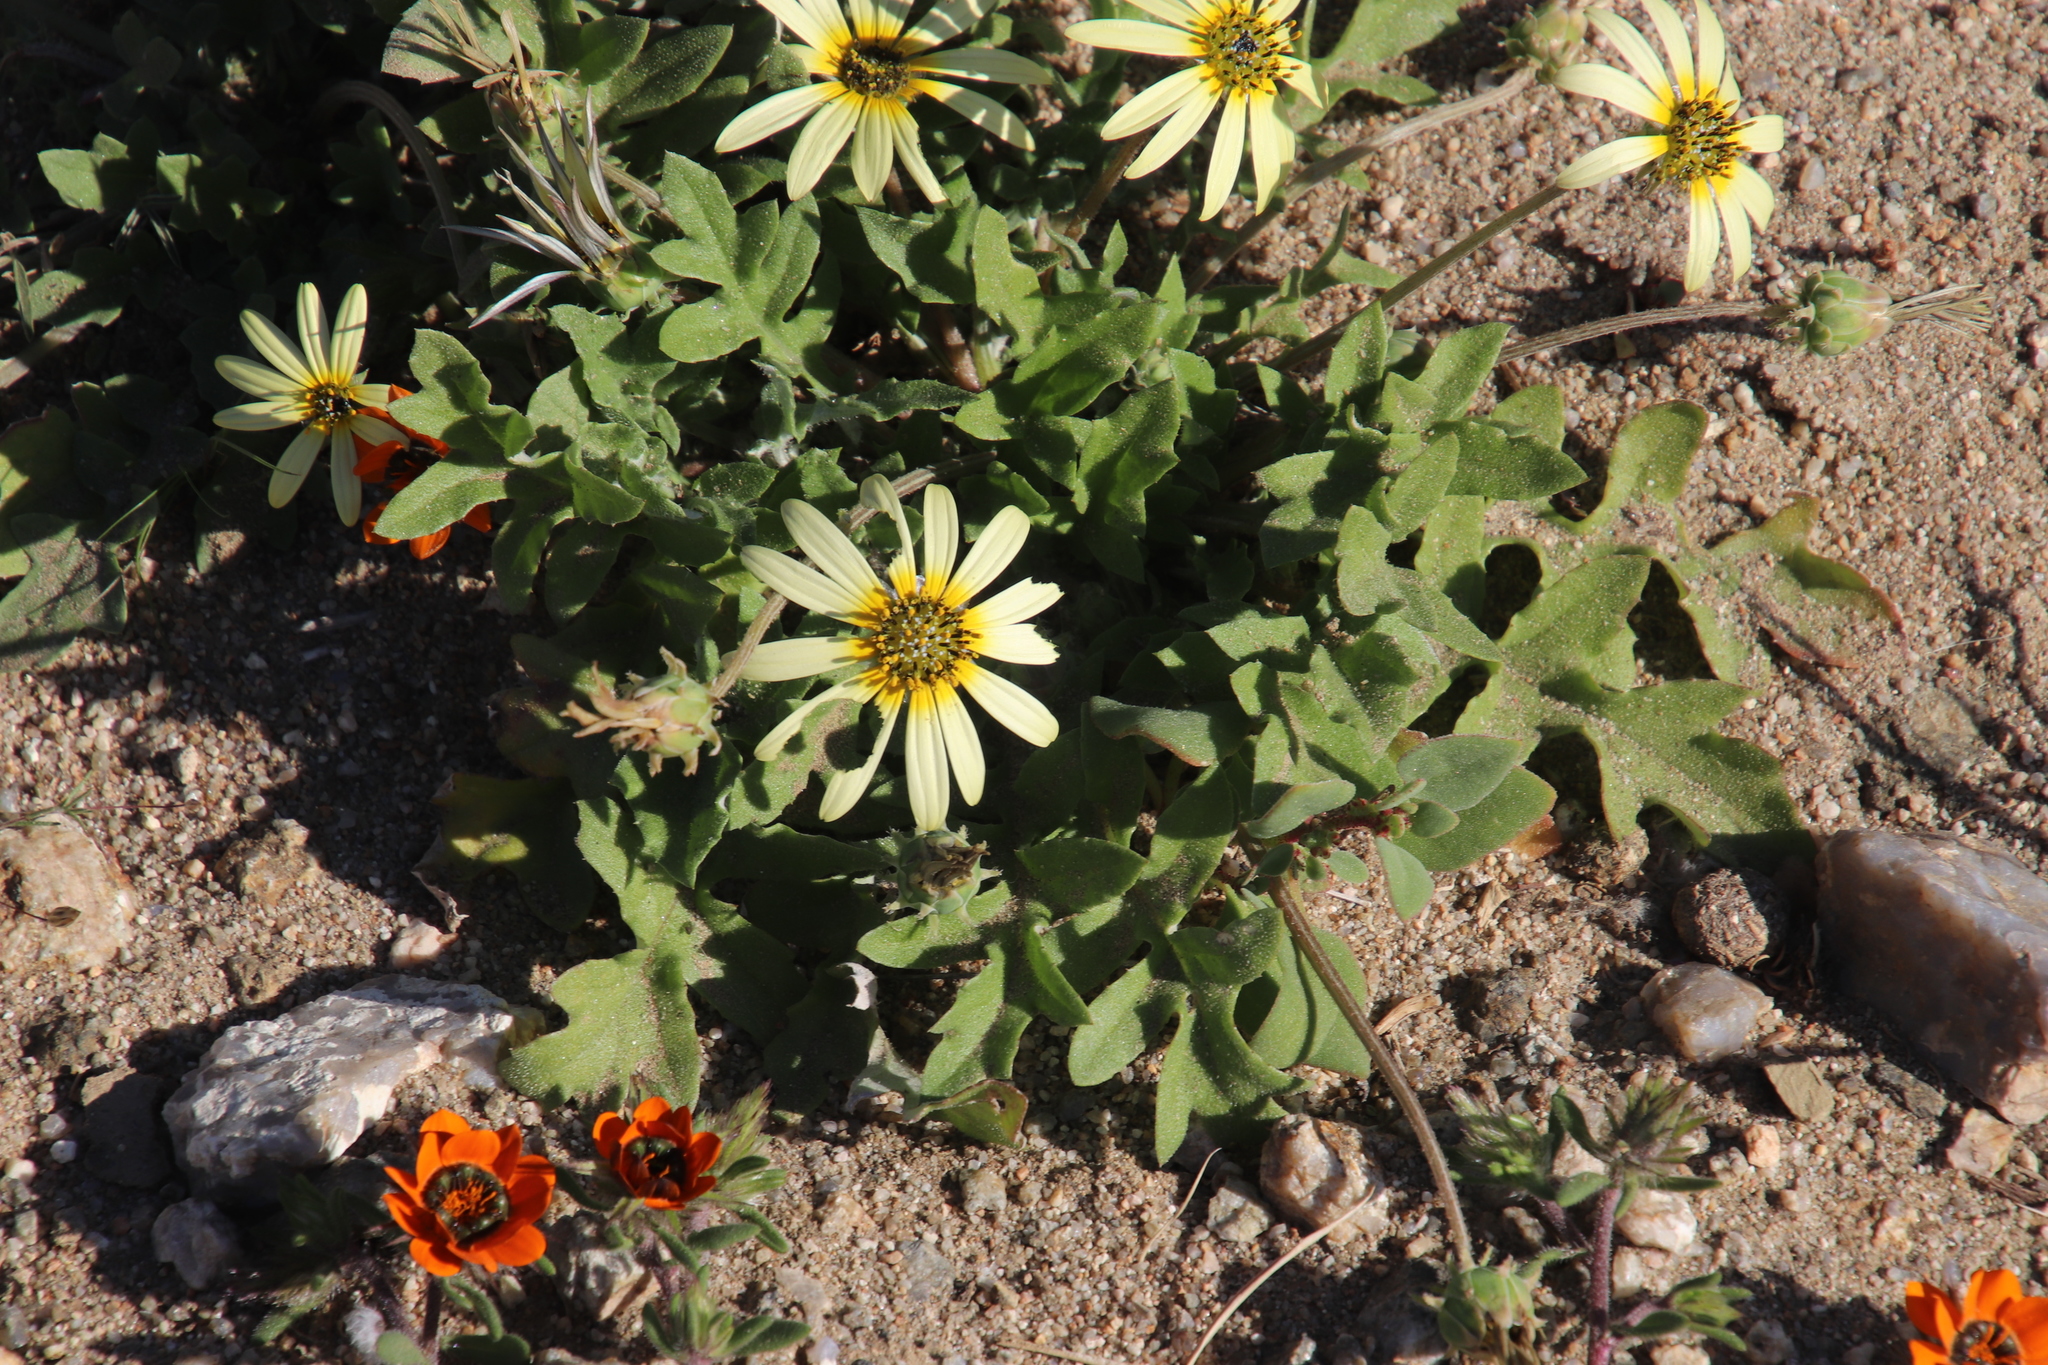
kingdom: Plantae
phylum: Tracheophyta
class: Magnoliopsida
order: Asterales
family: Asteraceae
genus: Arctotheca
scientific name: Arctotheca calendula
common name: Capeweed
